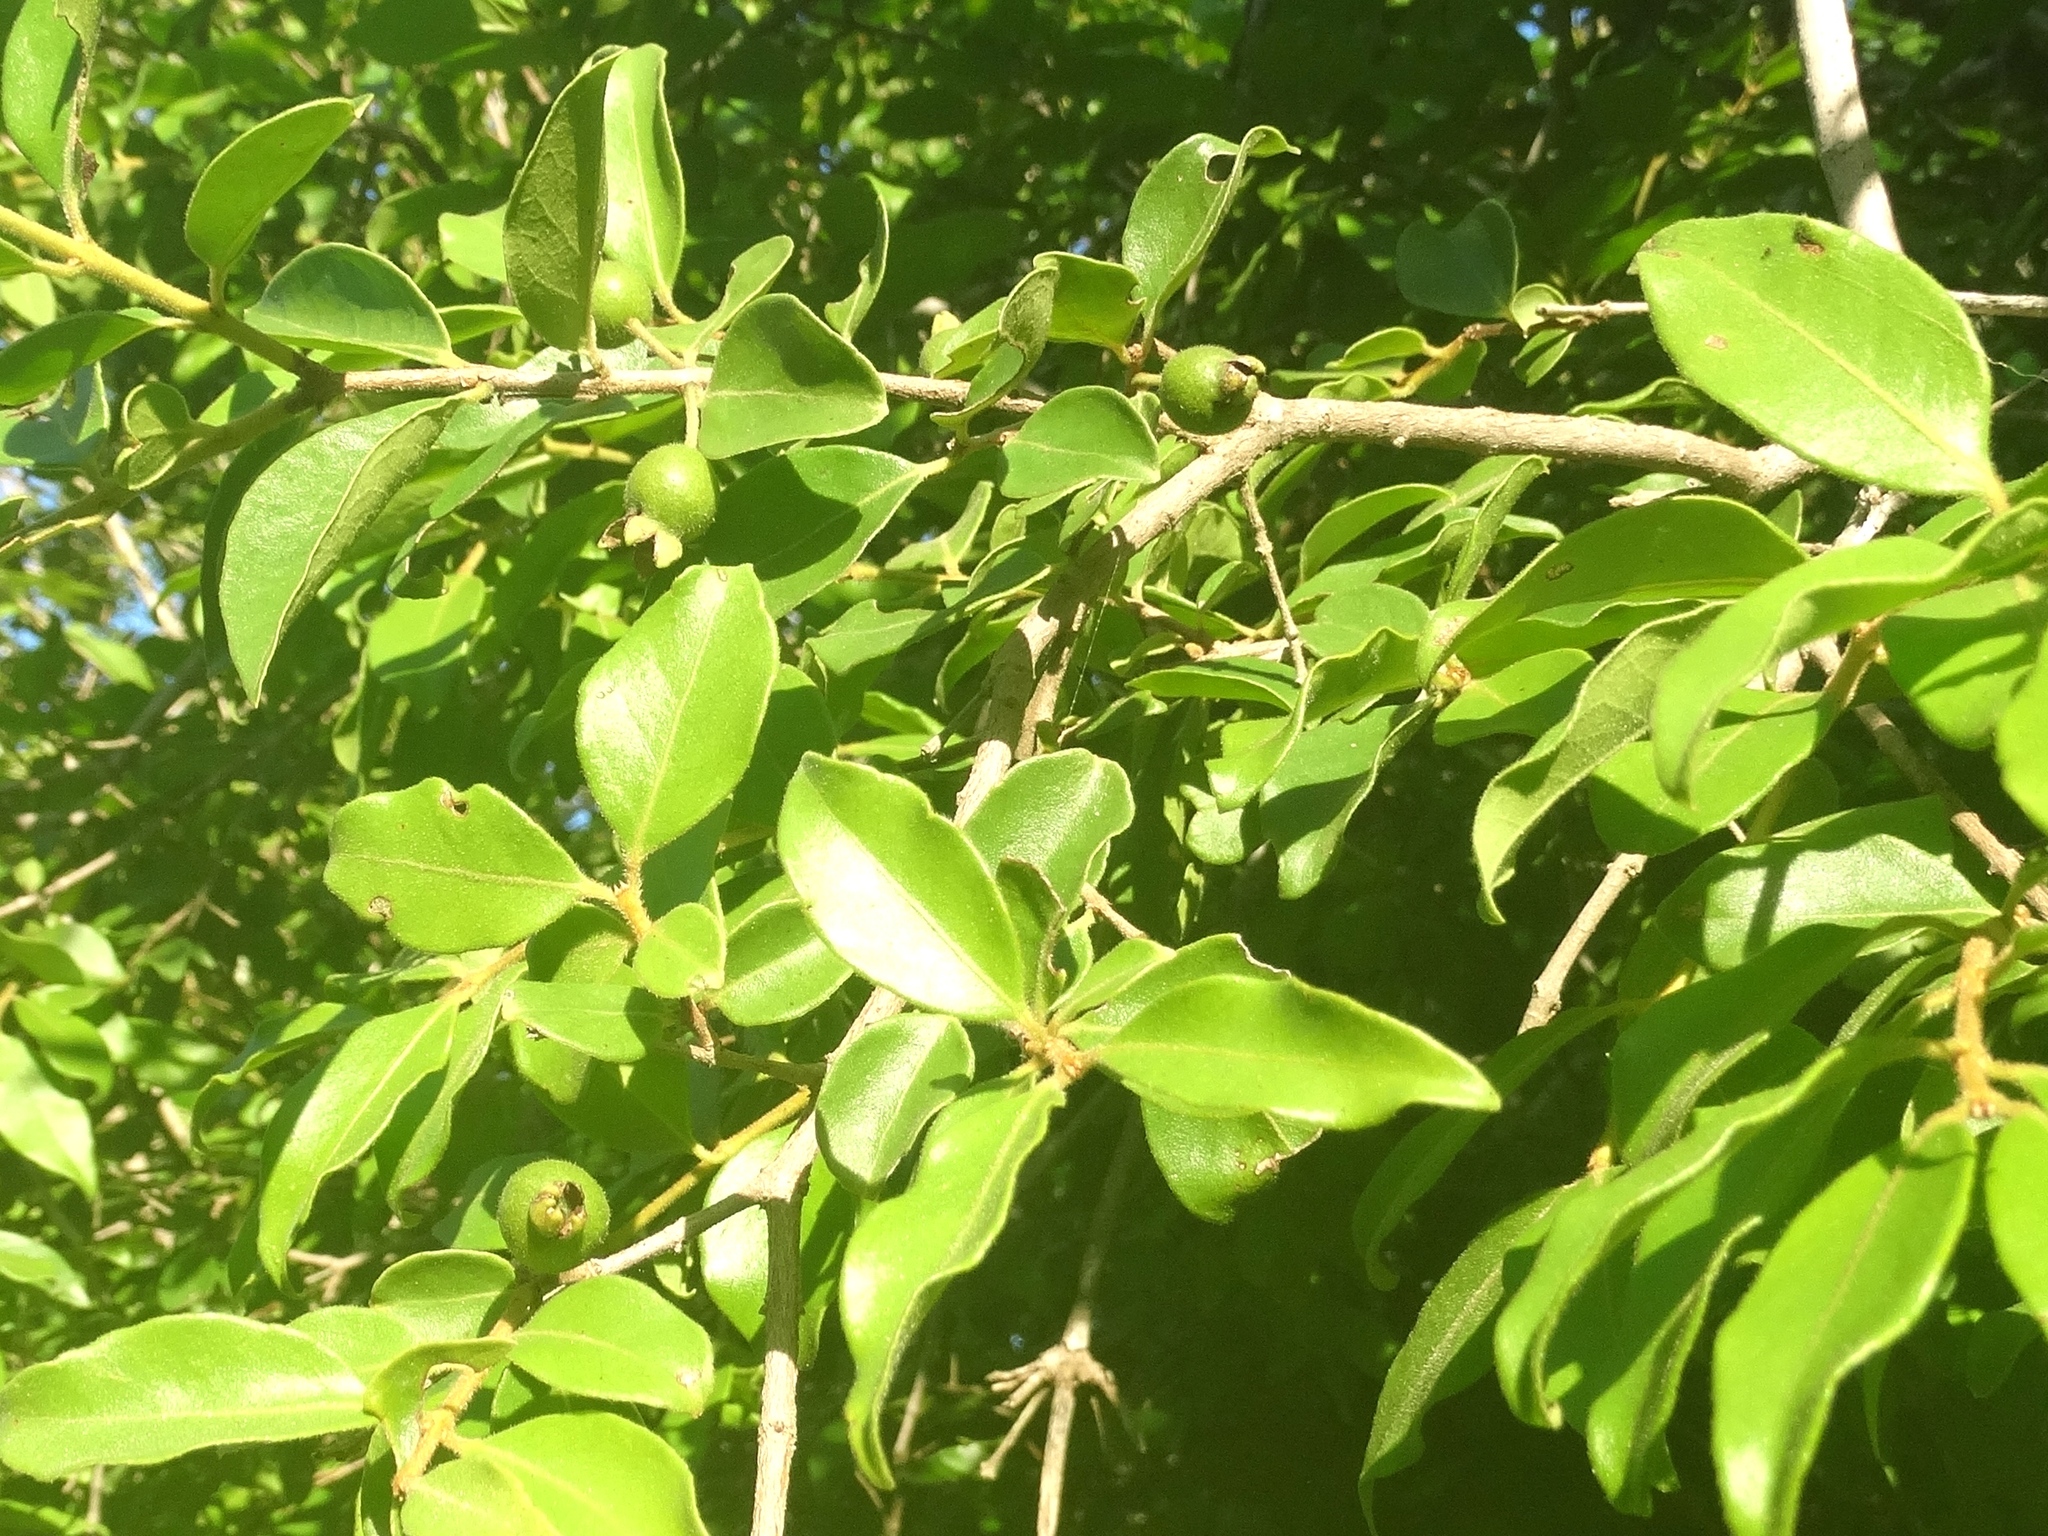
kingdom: Plantae
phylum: Tracheophyta
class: Magnoliopsida
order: Myrtales
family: Myrtaceae
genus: Psidium
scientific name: Psidium sartorianum
